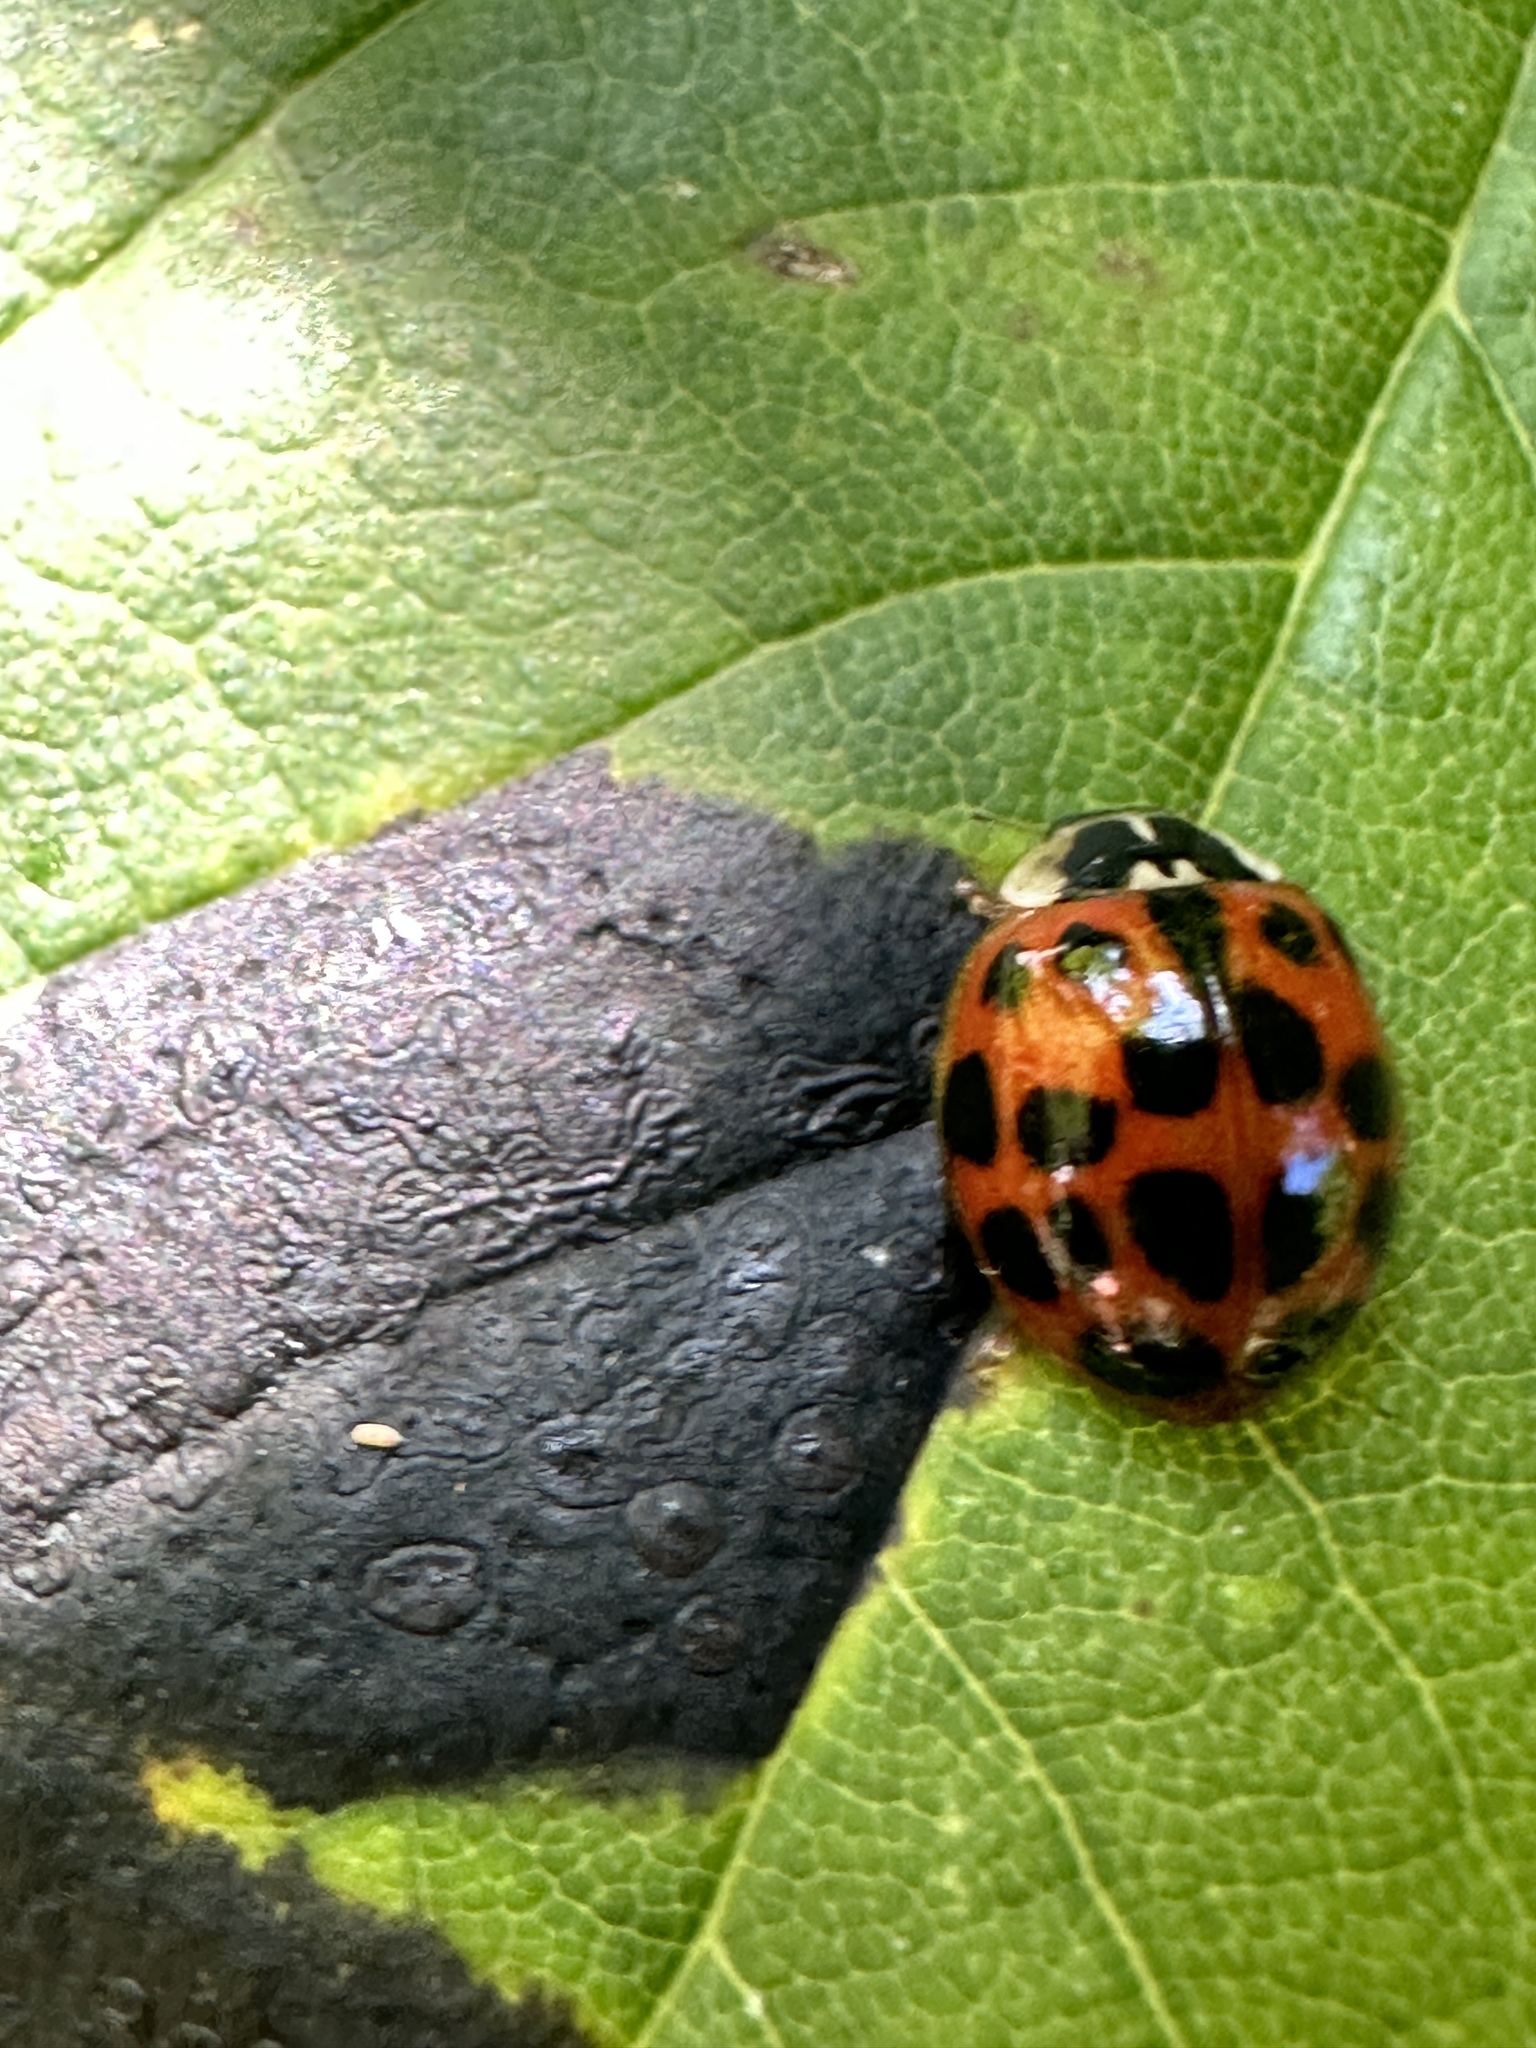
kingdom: Animalia
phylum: Arthropoda
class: Insecta
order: Coleoptera
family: Coccinellidae
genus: Harmonia
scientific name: Harmonia axyridis
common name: Harlequin ladybird
